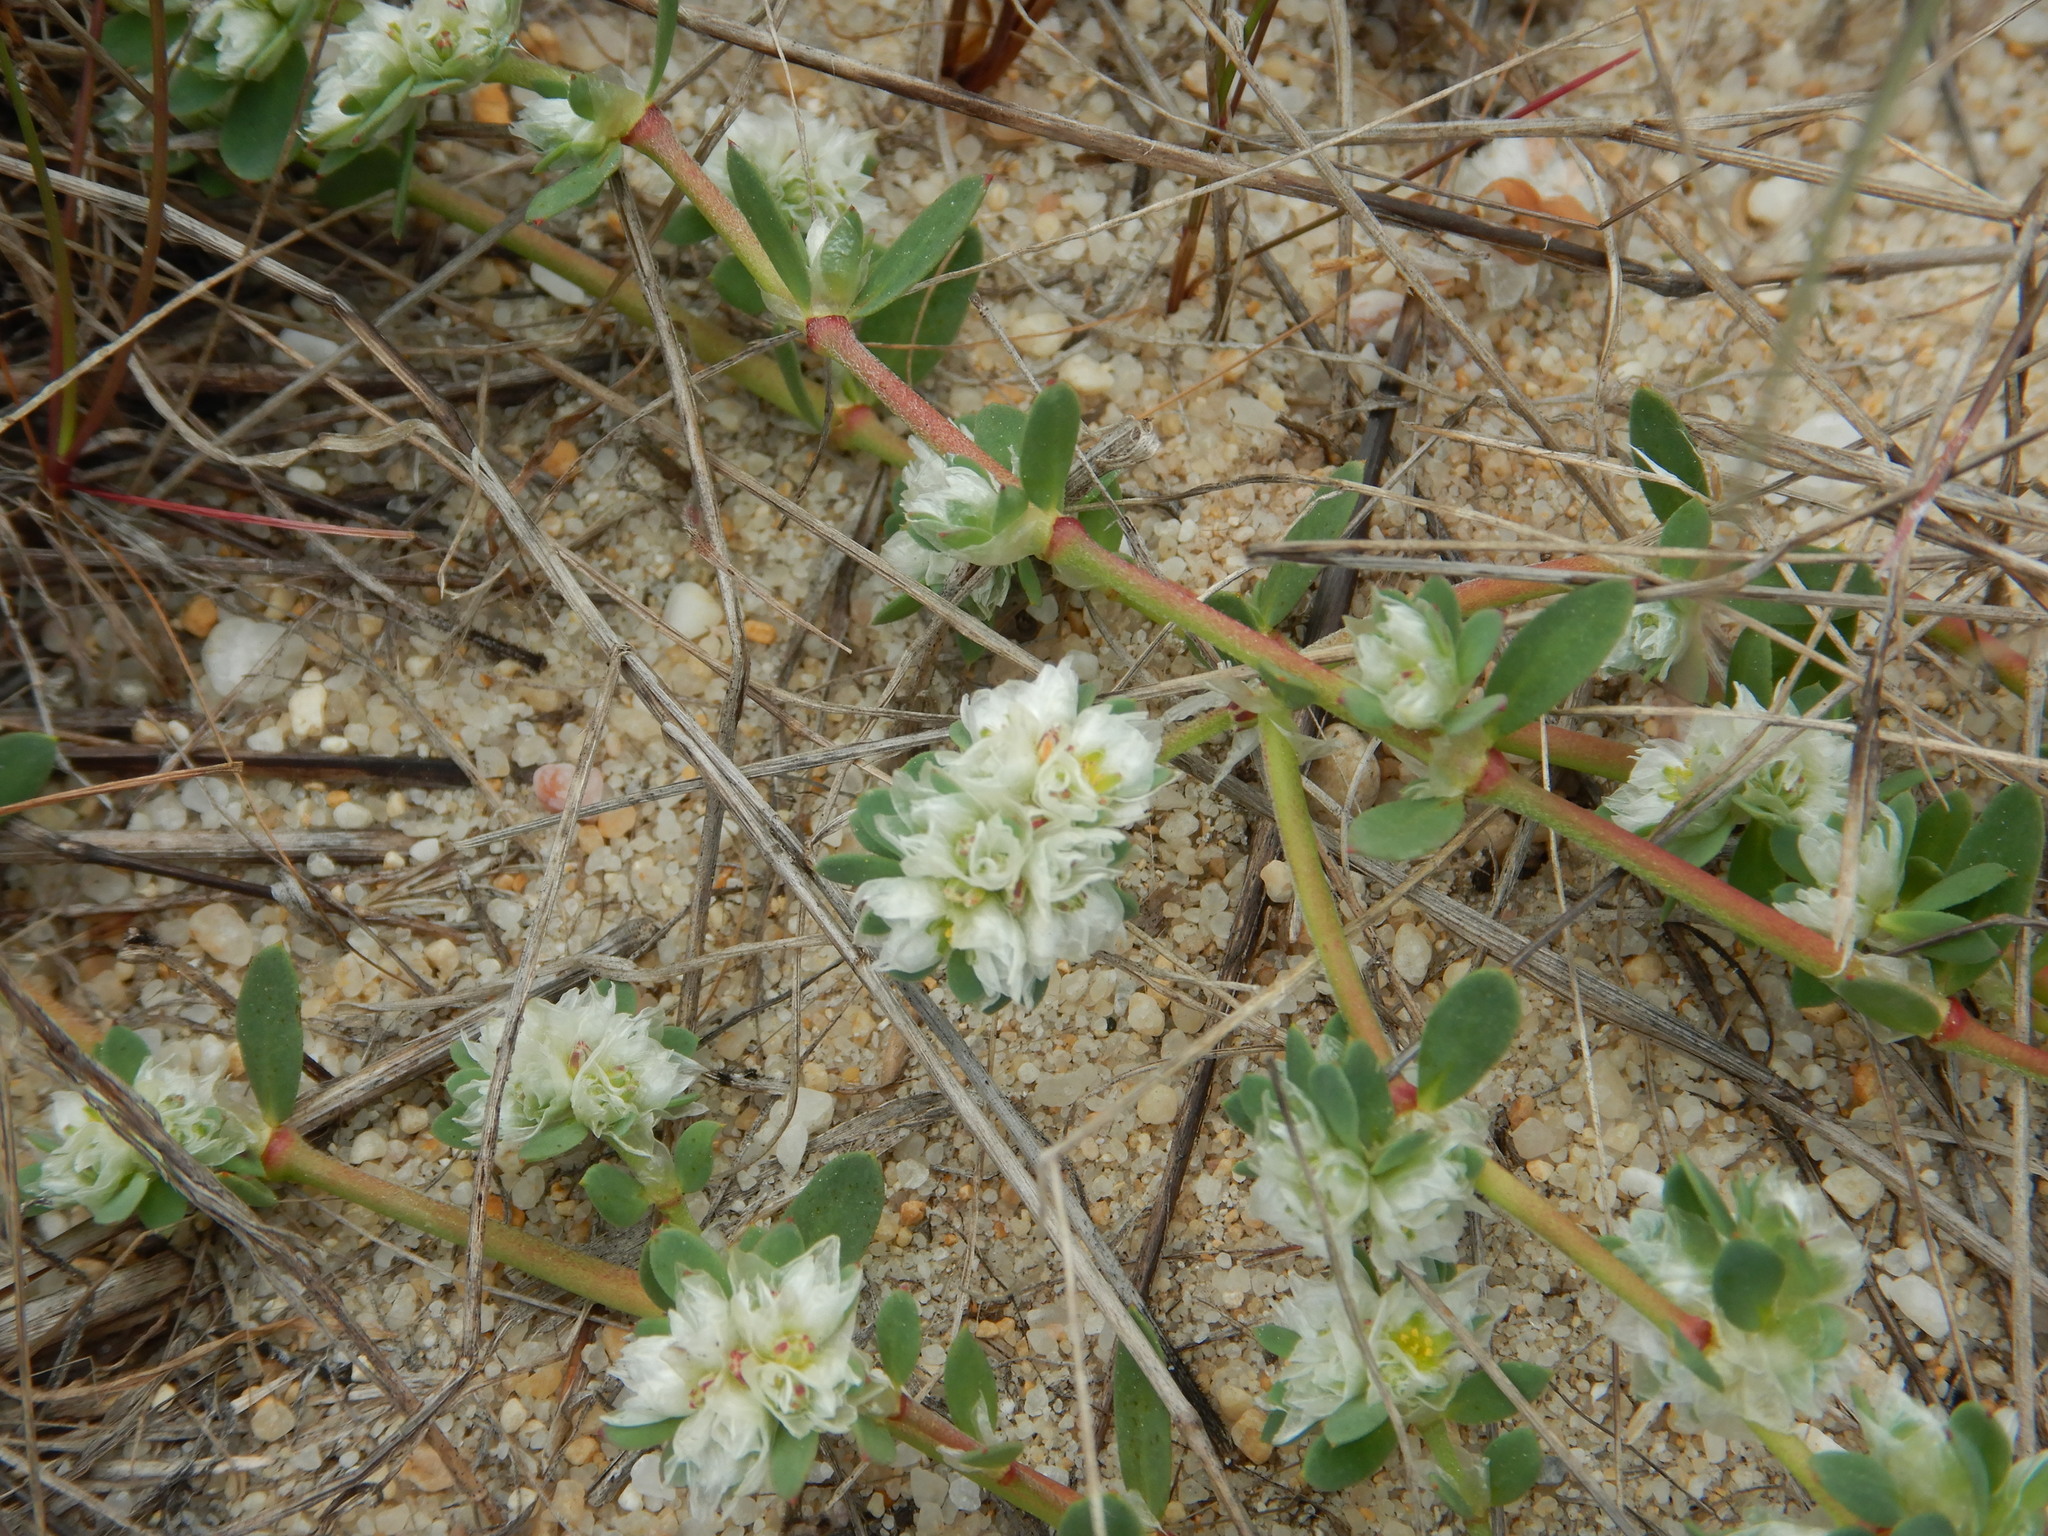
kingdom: Plantae
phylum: Tracheophyta
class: Magnoliopsida
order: Caryophyllales
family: Caryophyllaceae
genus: Paronychia
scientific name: Paronychia argentea
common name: Silver nailroot
